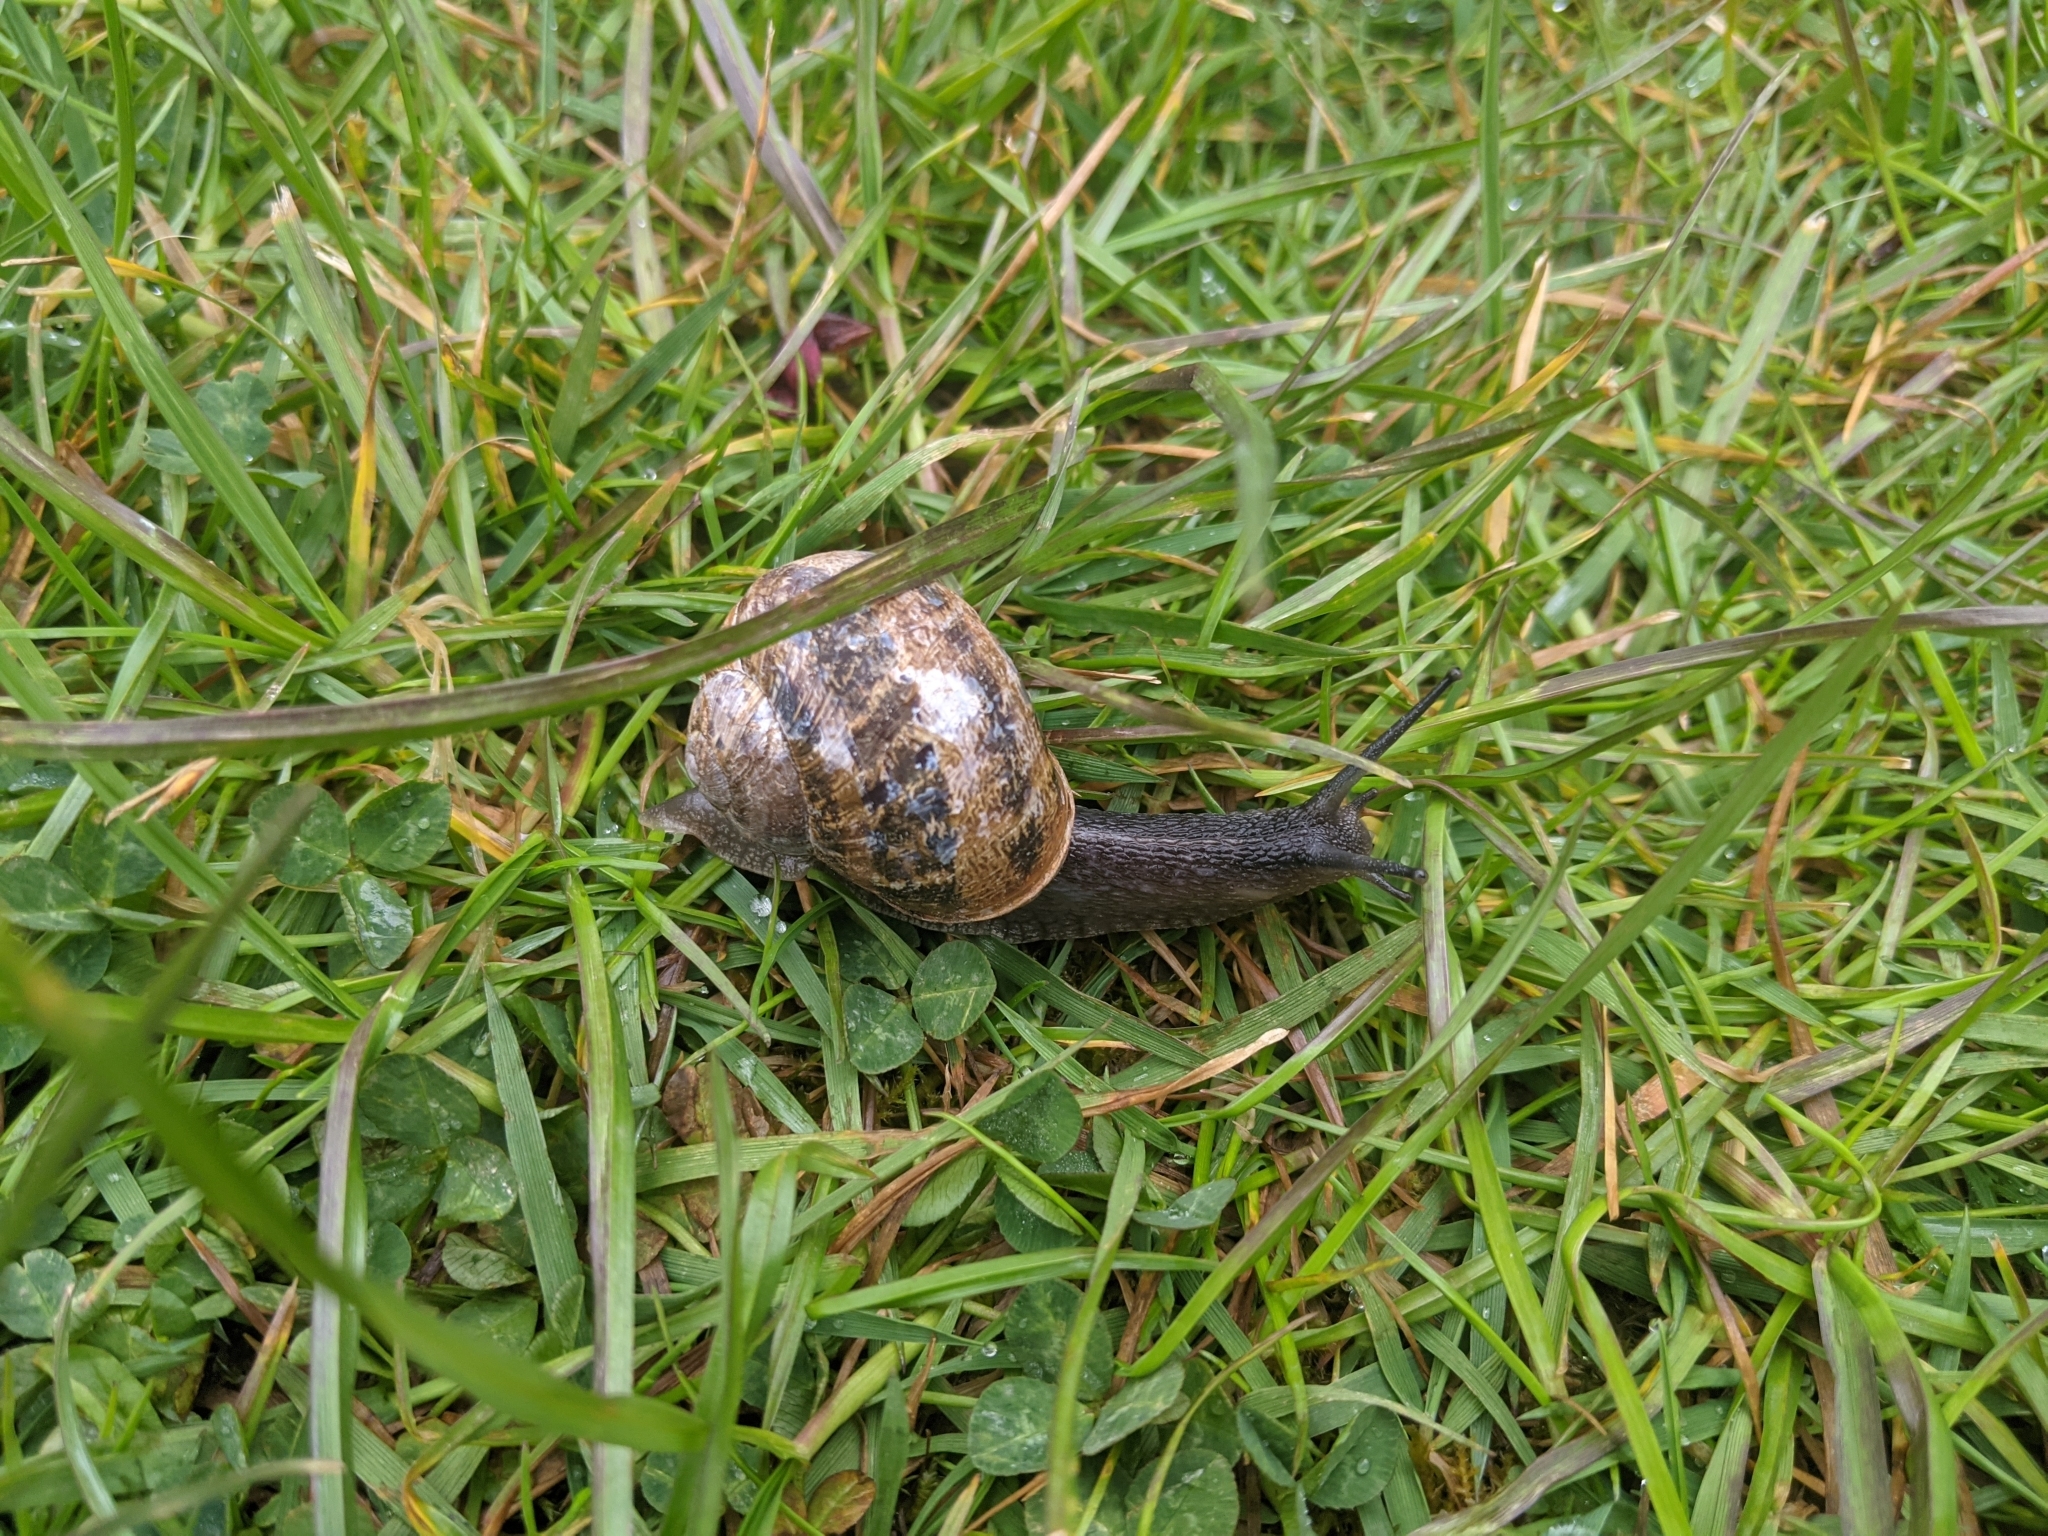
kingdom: Animalia
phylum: Mollusca
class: Gastropoda
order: Stylommatophora
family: Helicidae
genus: Cornu
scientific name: Cornu aspersum
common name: Brown garden snail
